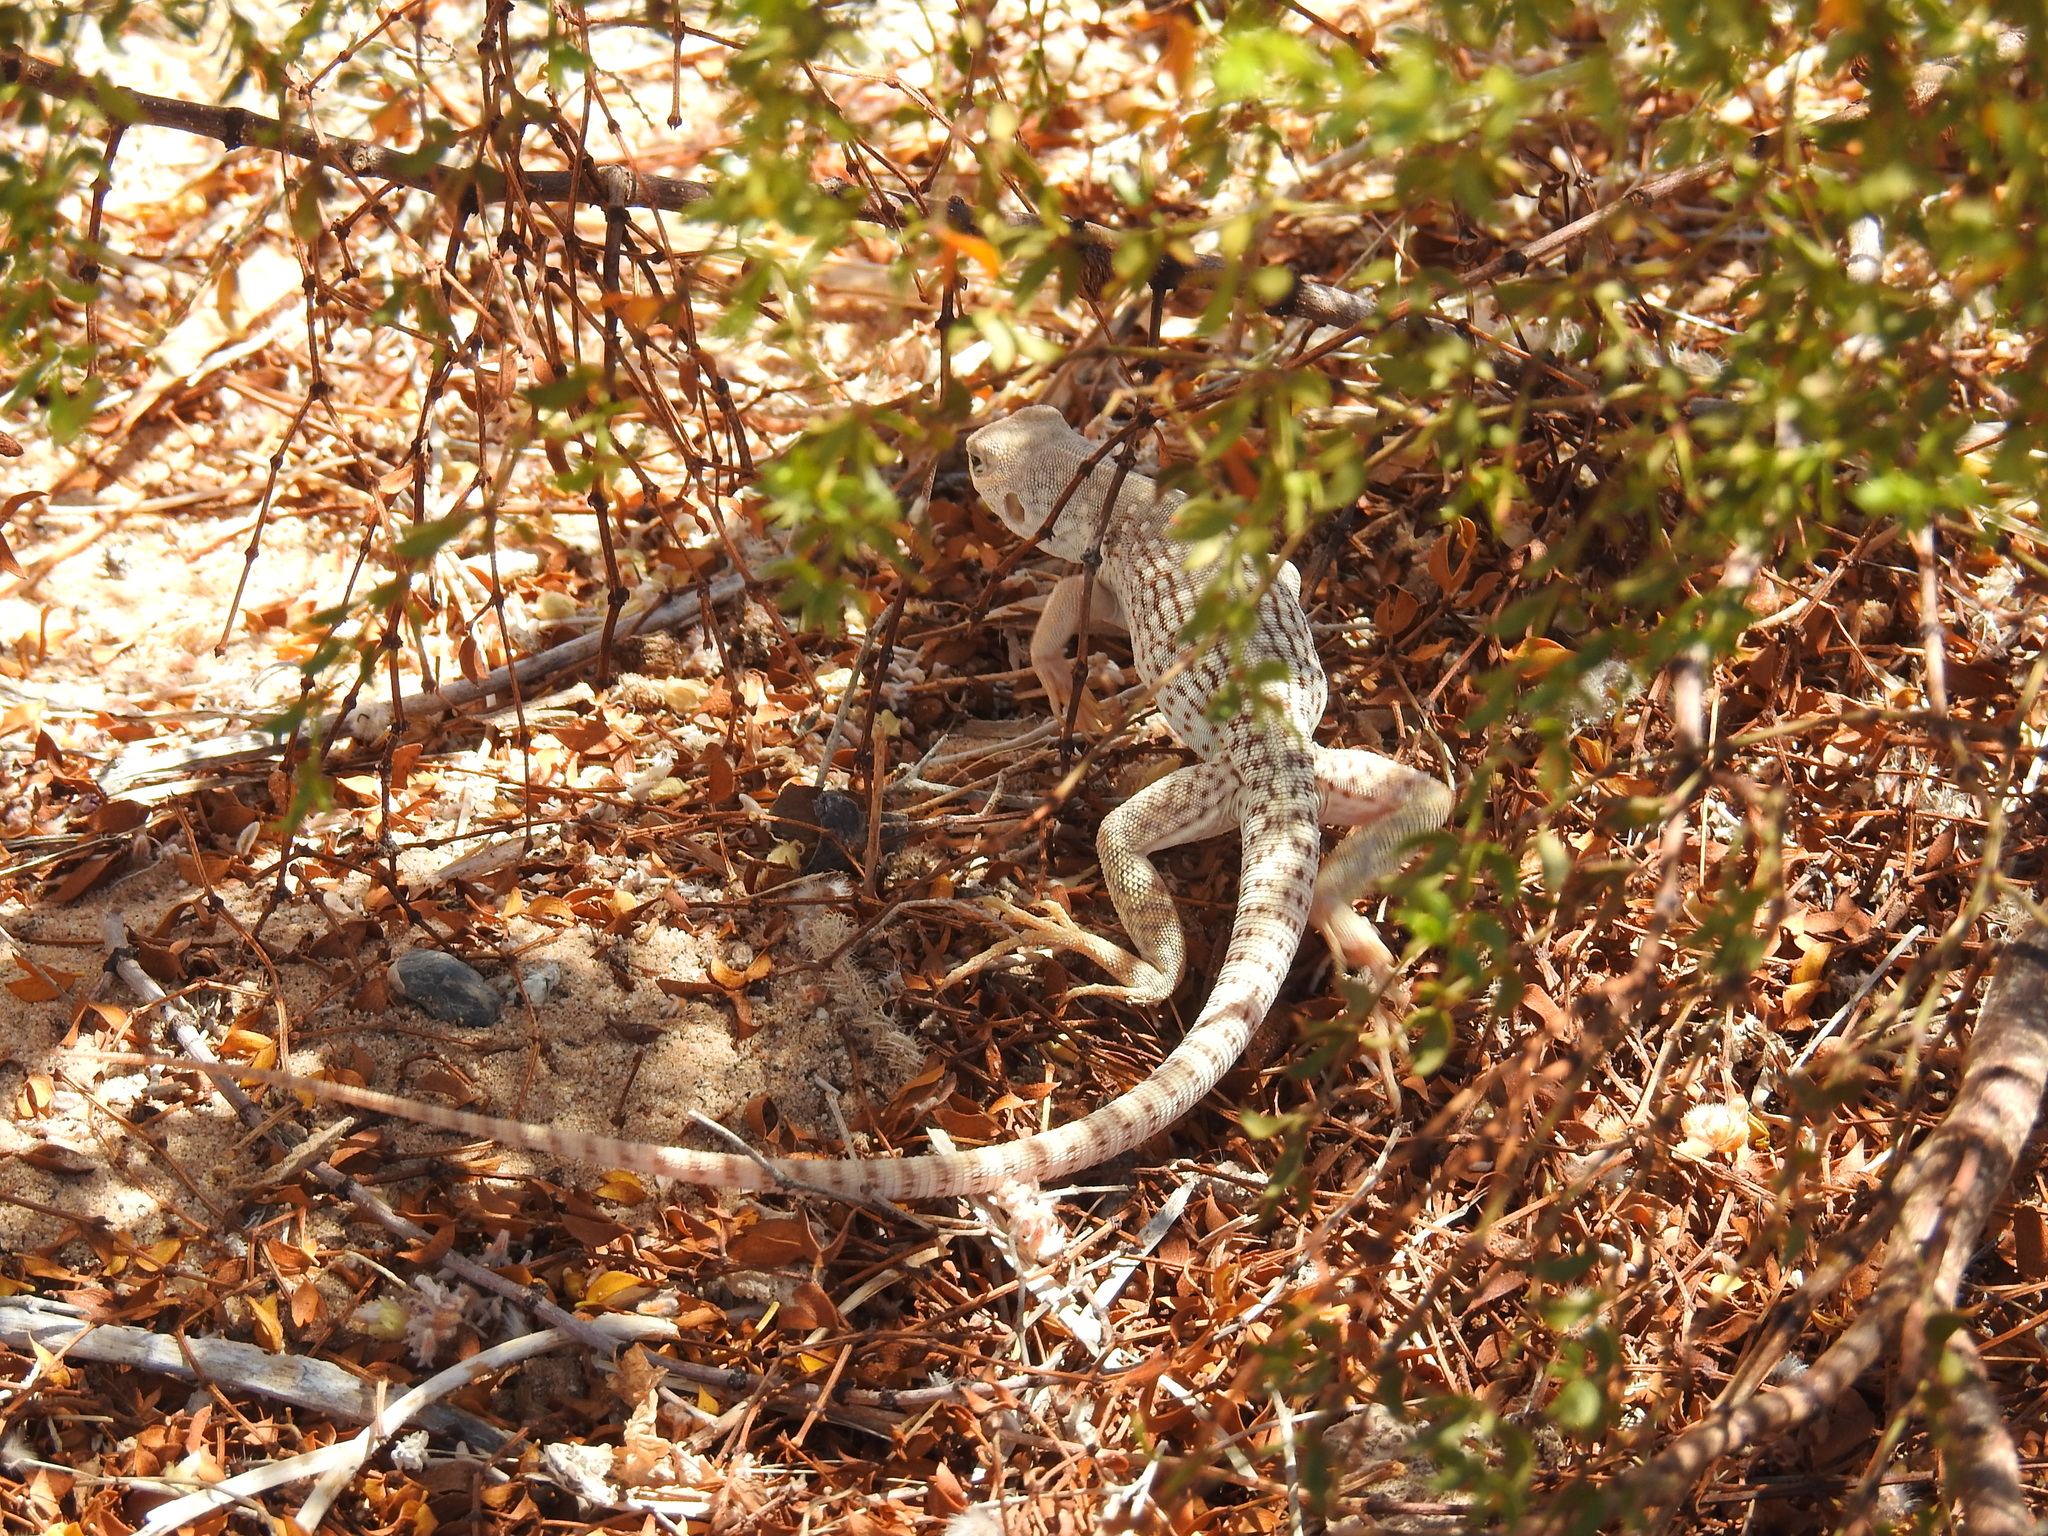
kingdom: Animalia
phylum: Chordata
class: Squamata
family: Iguanidae
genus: Dipsosaurus
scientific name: Dipsosaurus dorsalis
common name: Desert iguana
